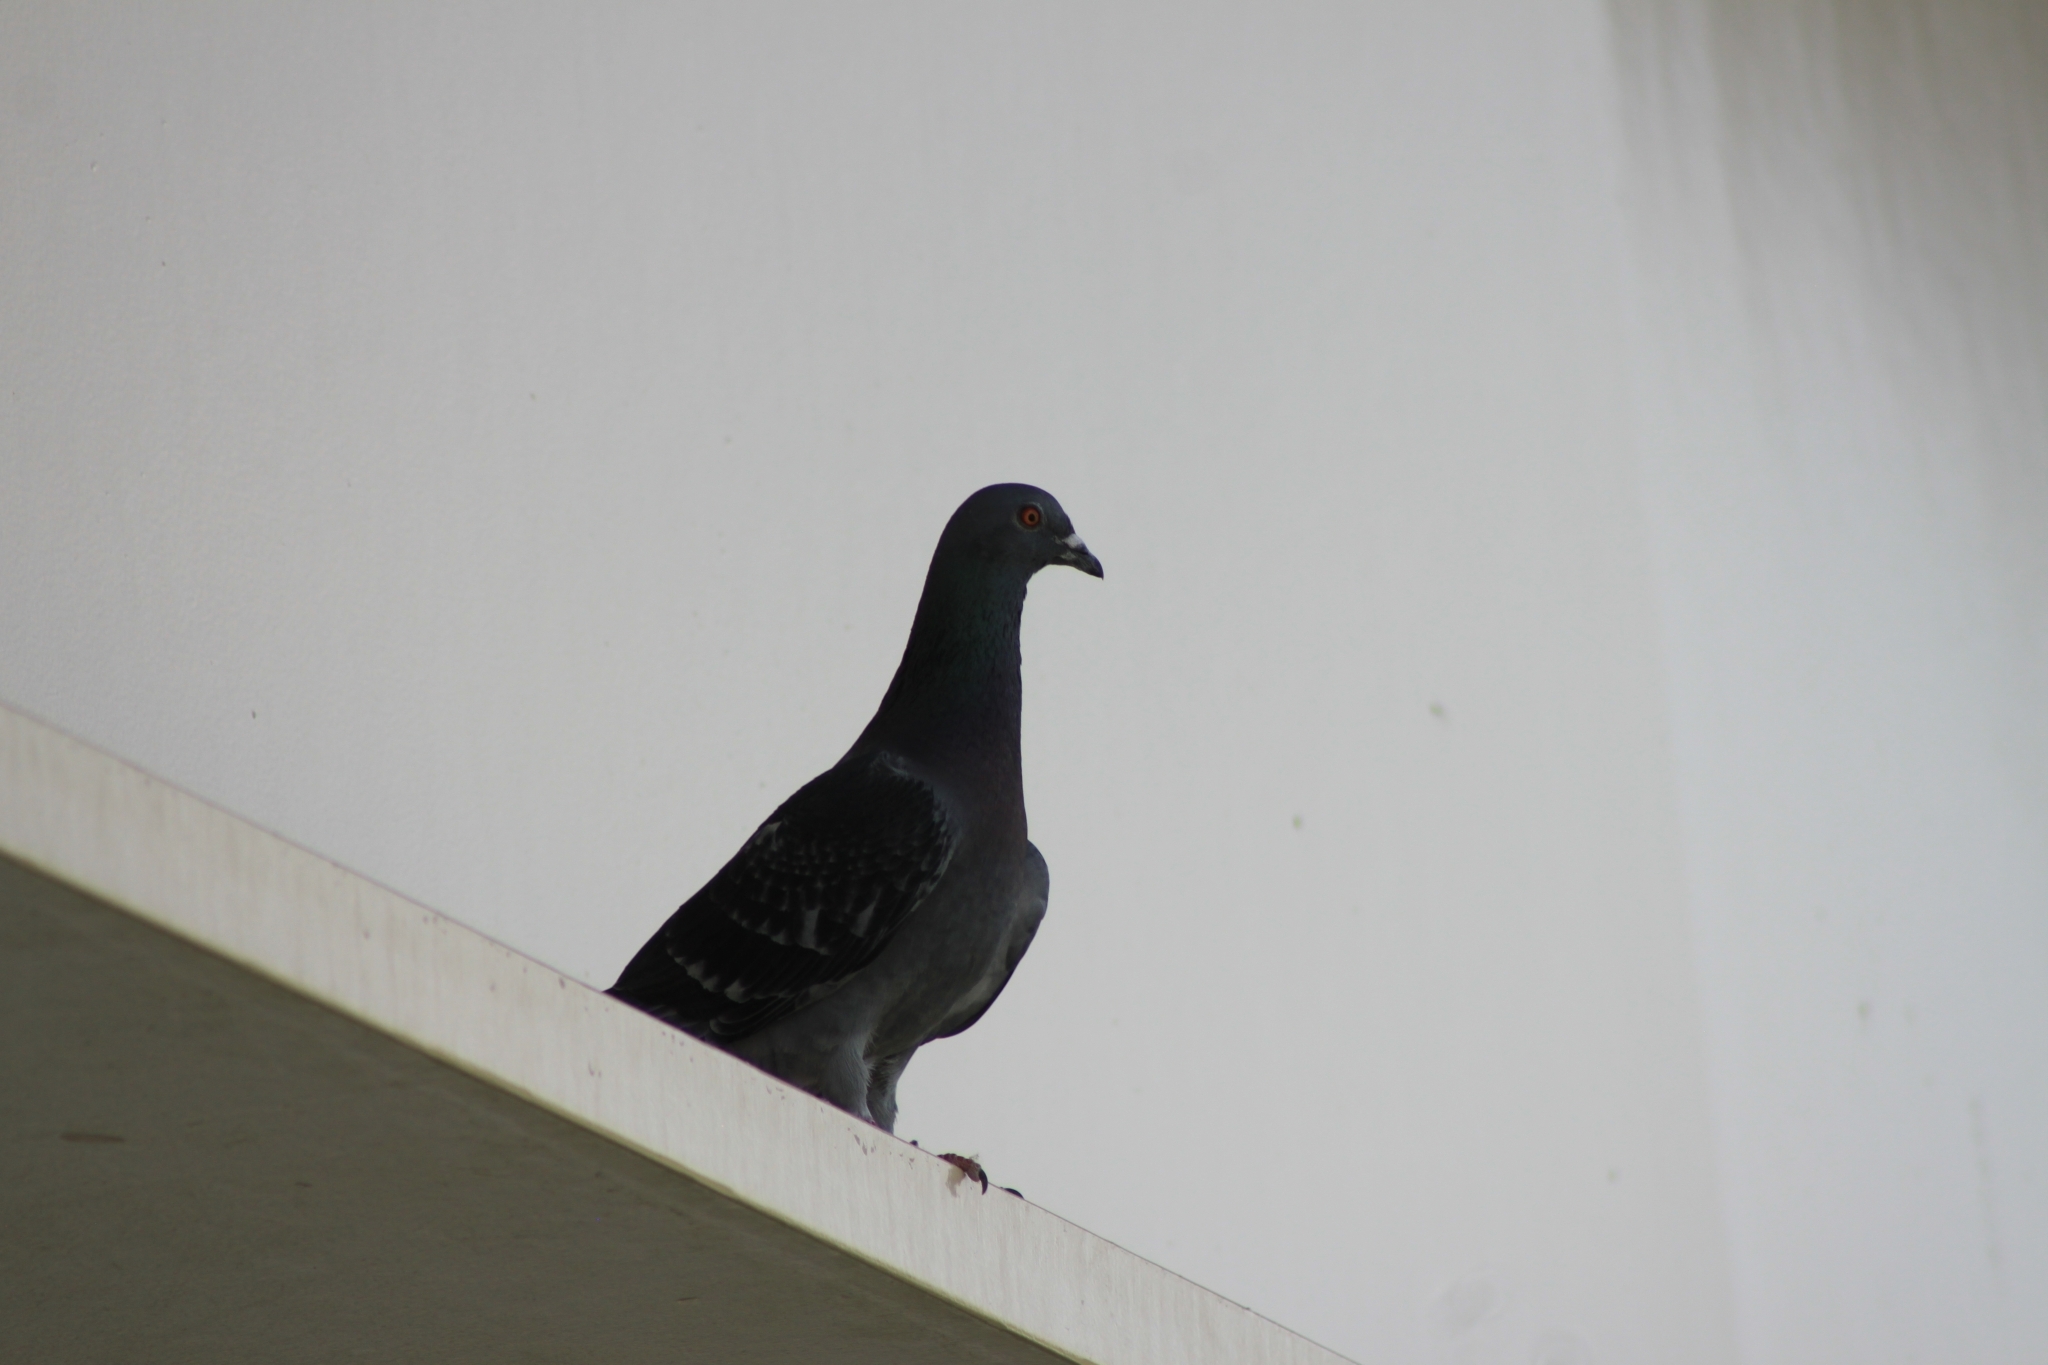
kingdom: Animalia
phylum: Chordata
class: Aves
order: Columbiformes
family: Columbidae
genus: Columba
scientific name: Columba livia
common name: Rock pigeon
